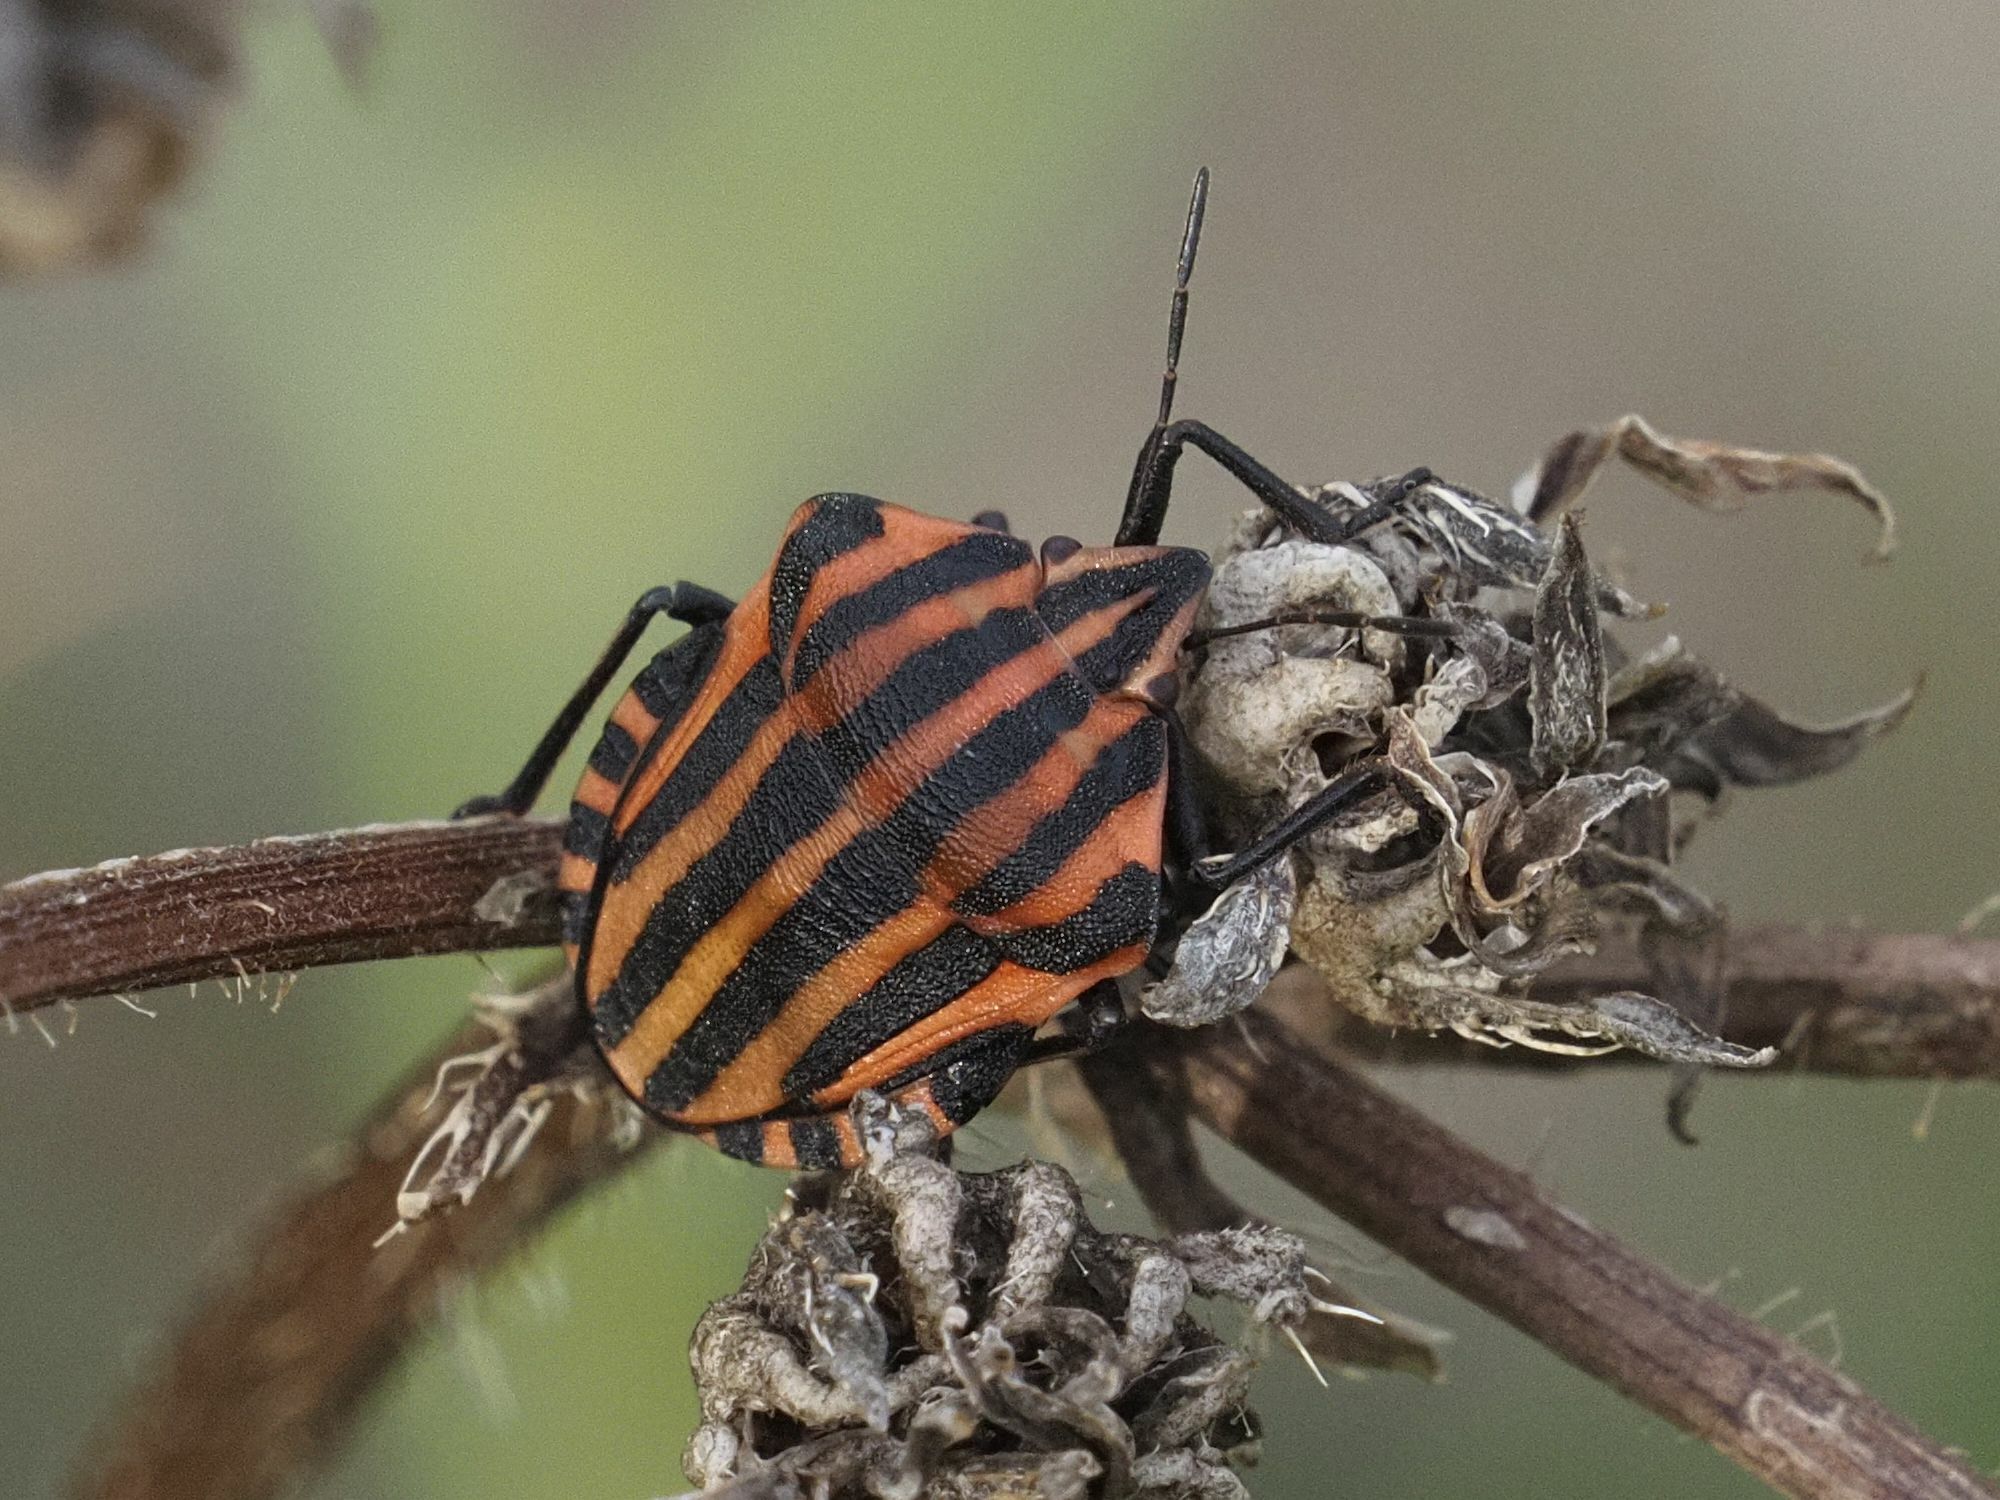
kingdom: Animalia
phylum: Arthropoda
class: Insecta
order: Hemiptera
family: Pentatomidae
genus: Graphosoma
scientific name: Graphosoma italicum
